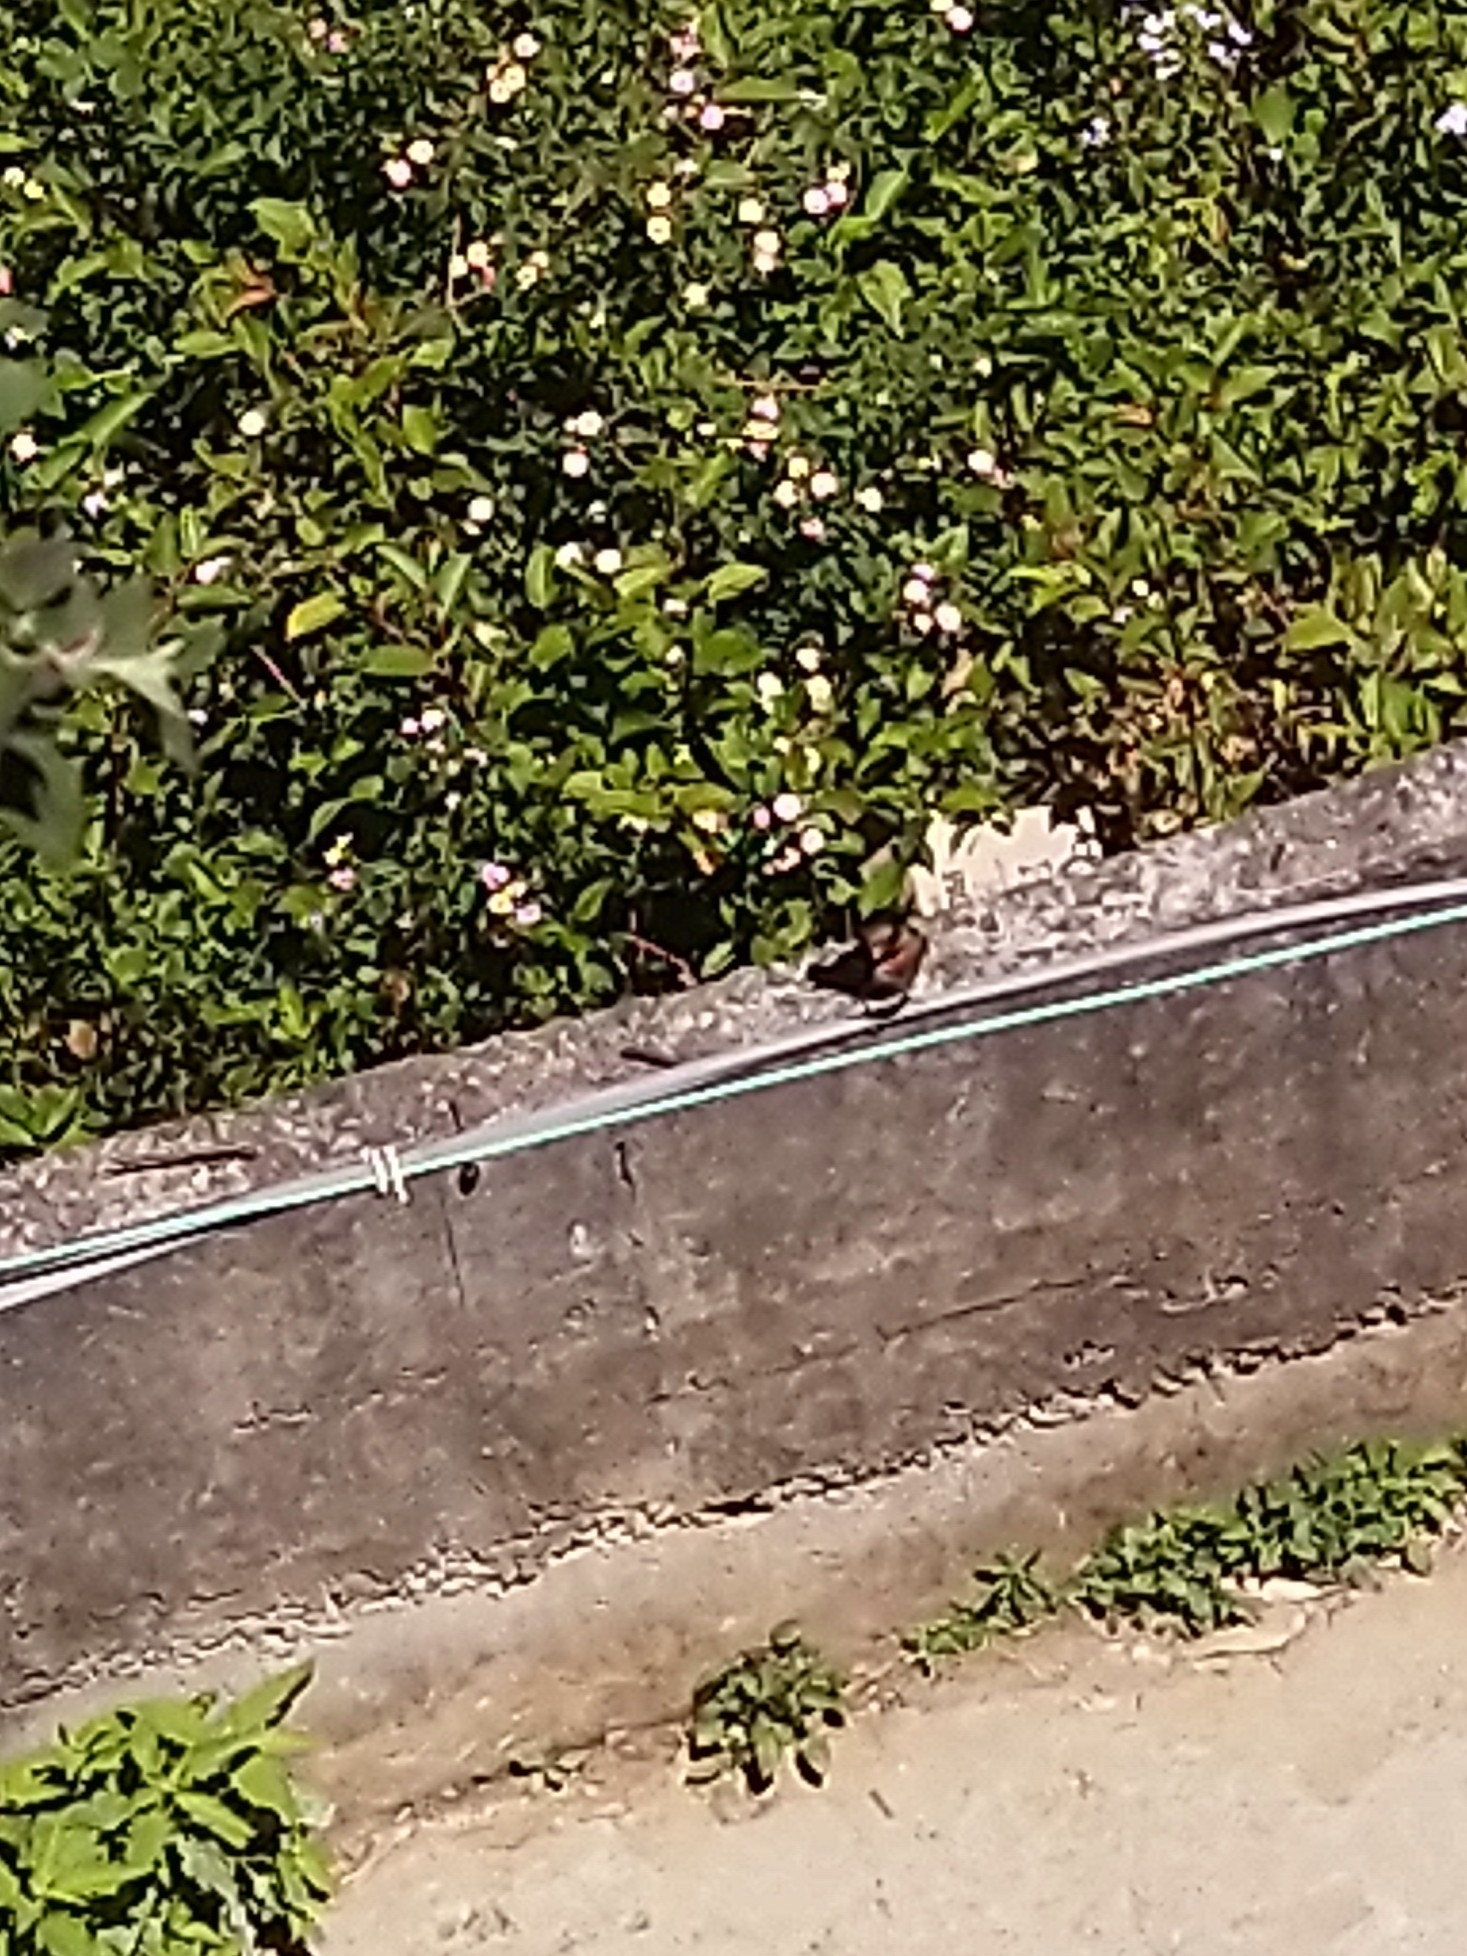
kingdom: Animalia
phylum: Chordata
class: Aves
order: Passeriformes
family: Hirundinidae
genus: Hirundo
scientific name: Hirundo domicola
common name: Hill swallow
